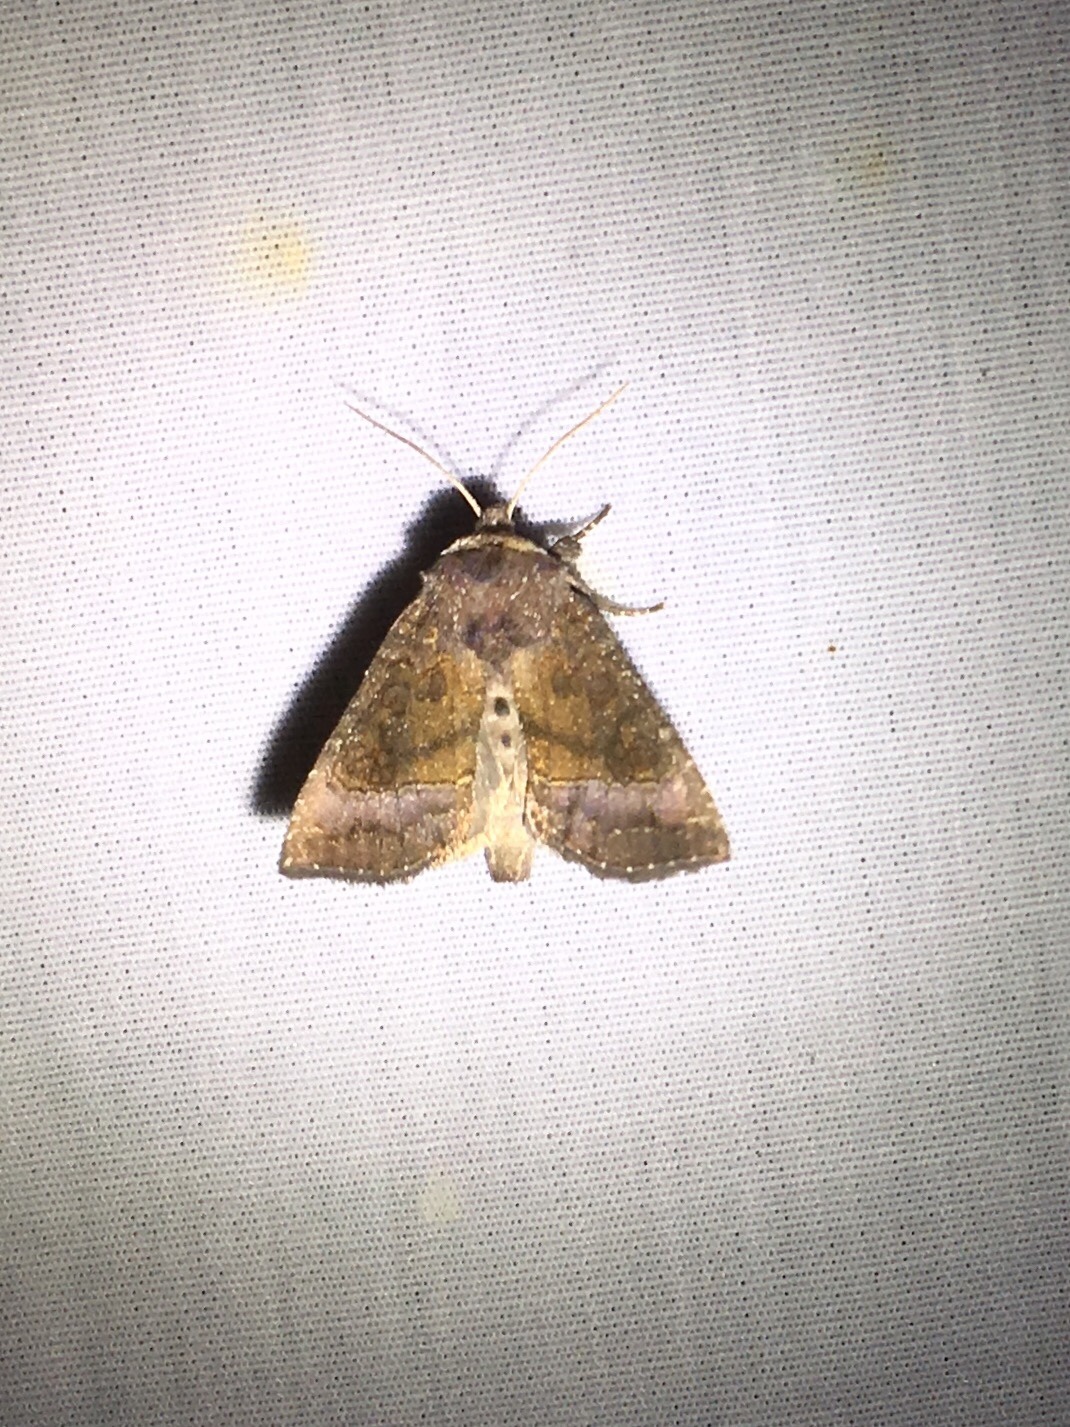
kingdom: Animalia
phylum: Arthropoda
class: Insecta
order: Lepidoptera
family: Noctuidae
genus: Papaipema
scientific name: Papaipema nelita
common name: Coneflower borer moth
